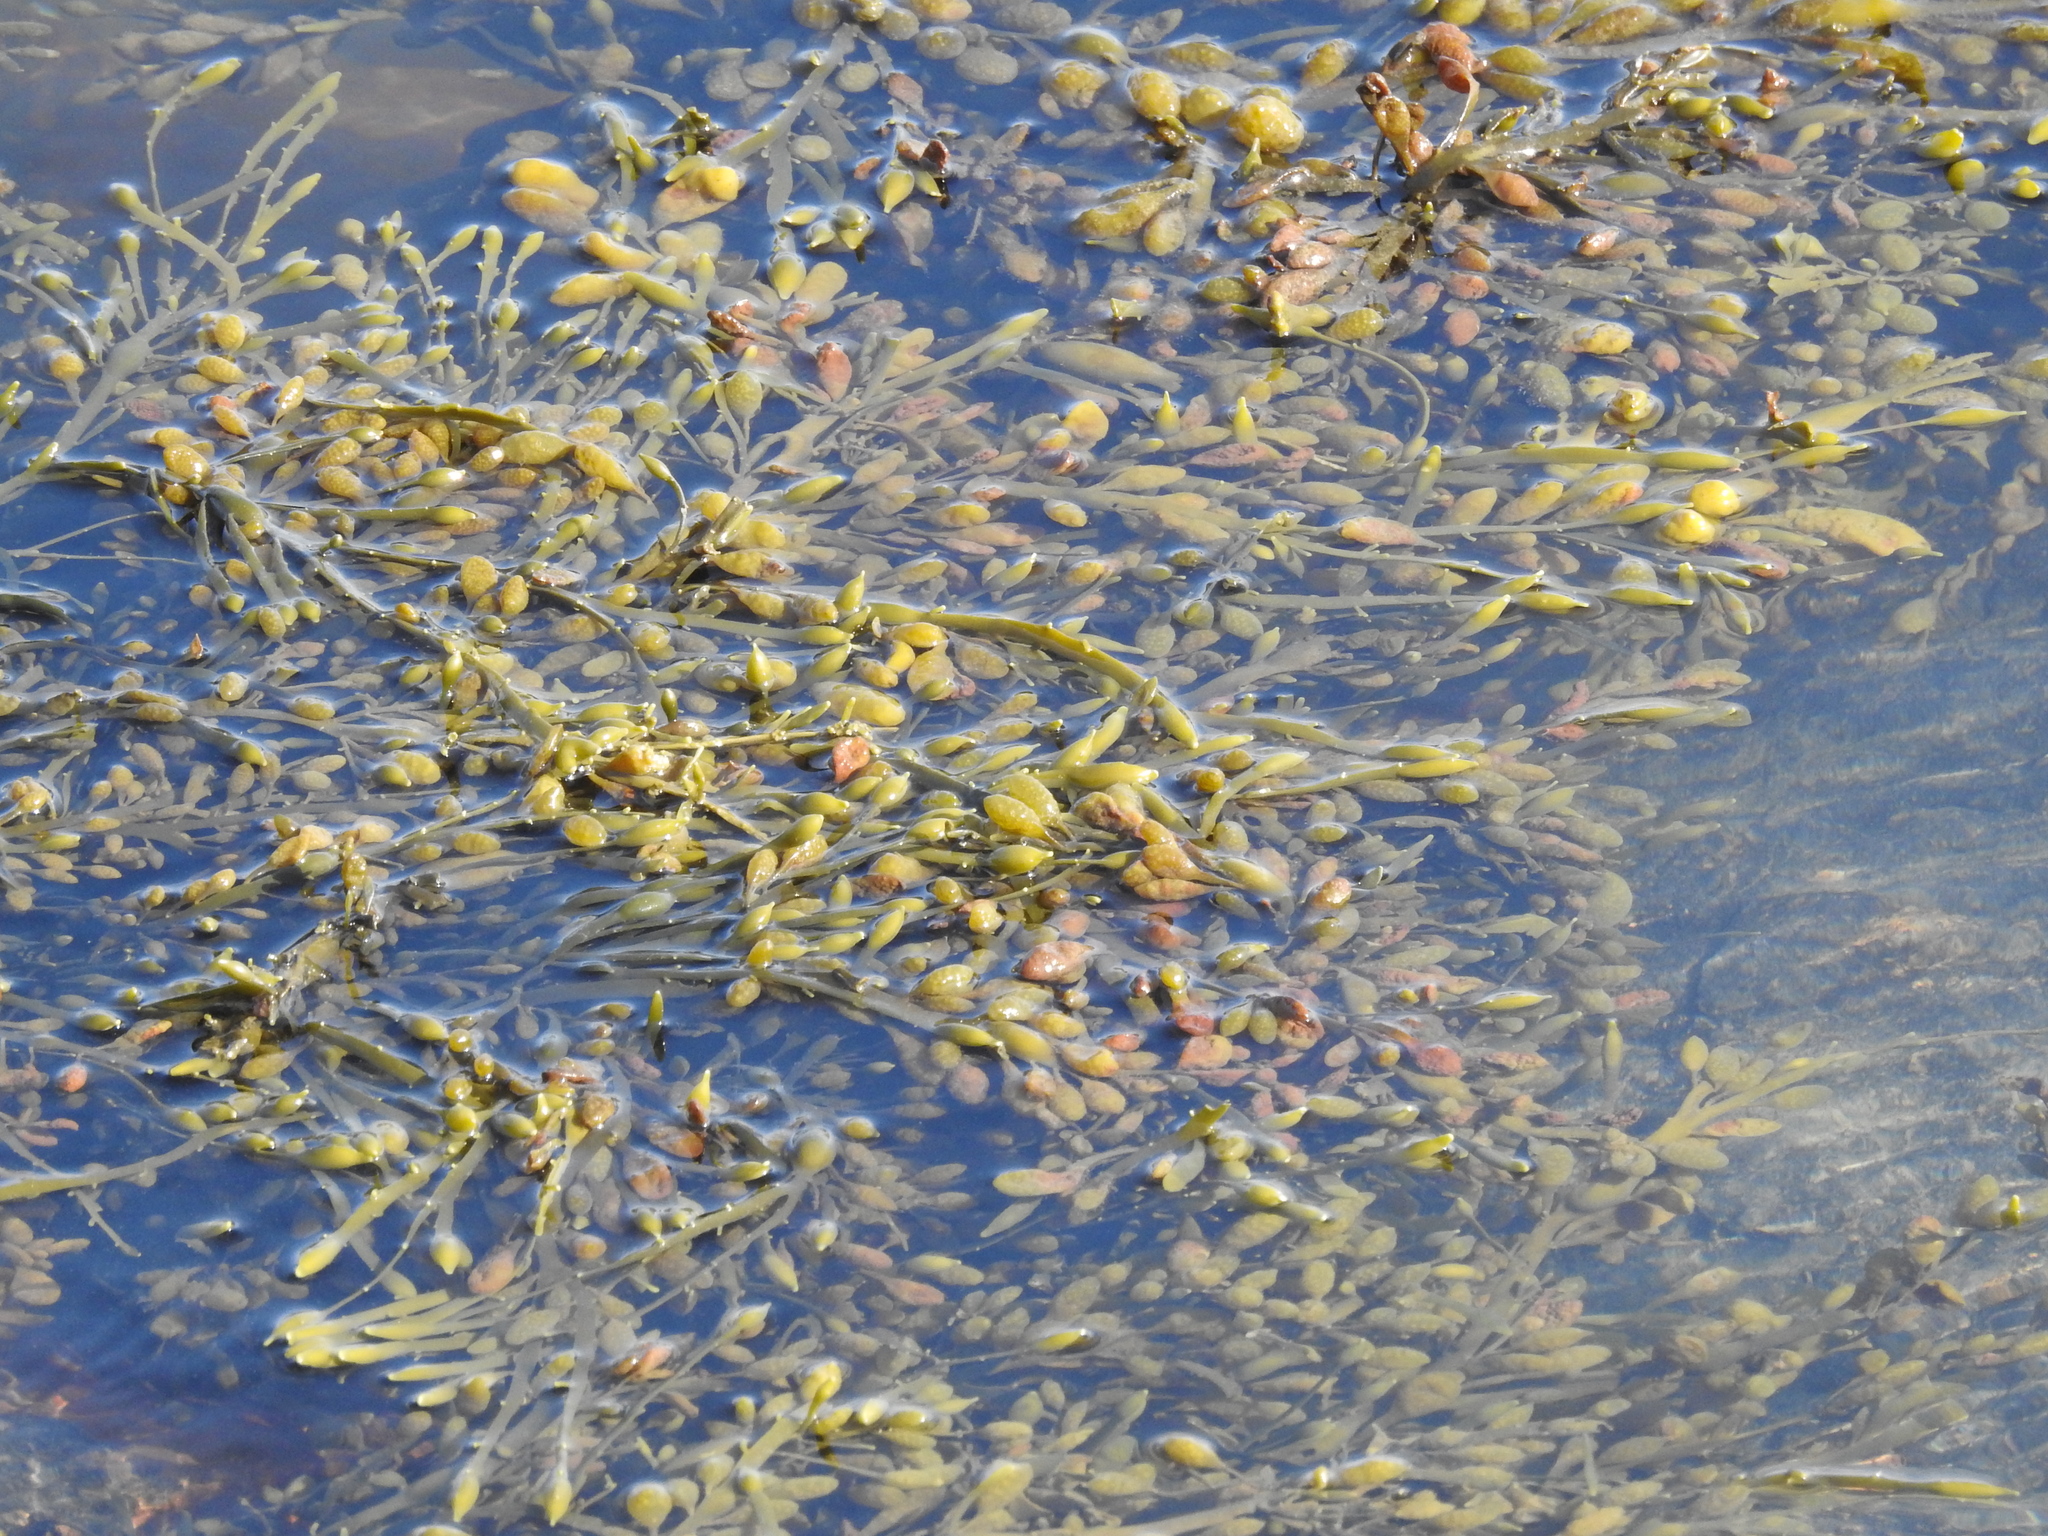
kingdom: Chromista
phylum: Ochrophyta
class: Phaeophyceae
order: Fucales
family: Fucaceae
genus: Ascophyllum
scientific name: Ascophyllum nodosum
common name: Knotted wrack
